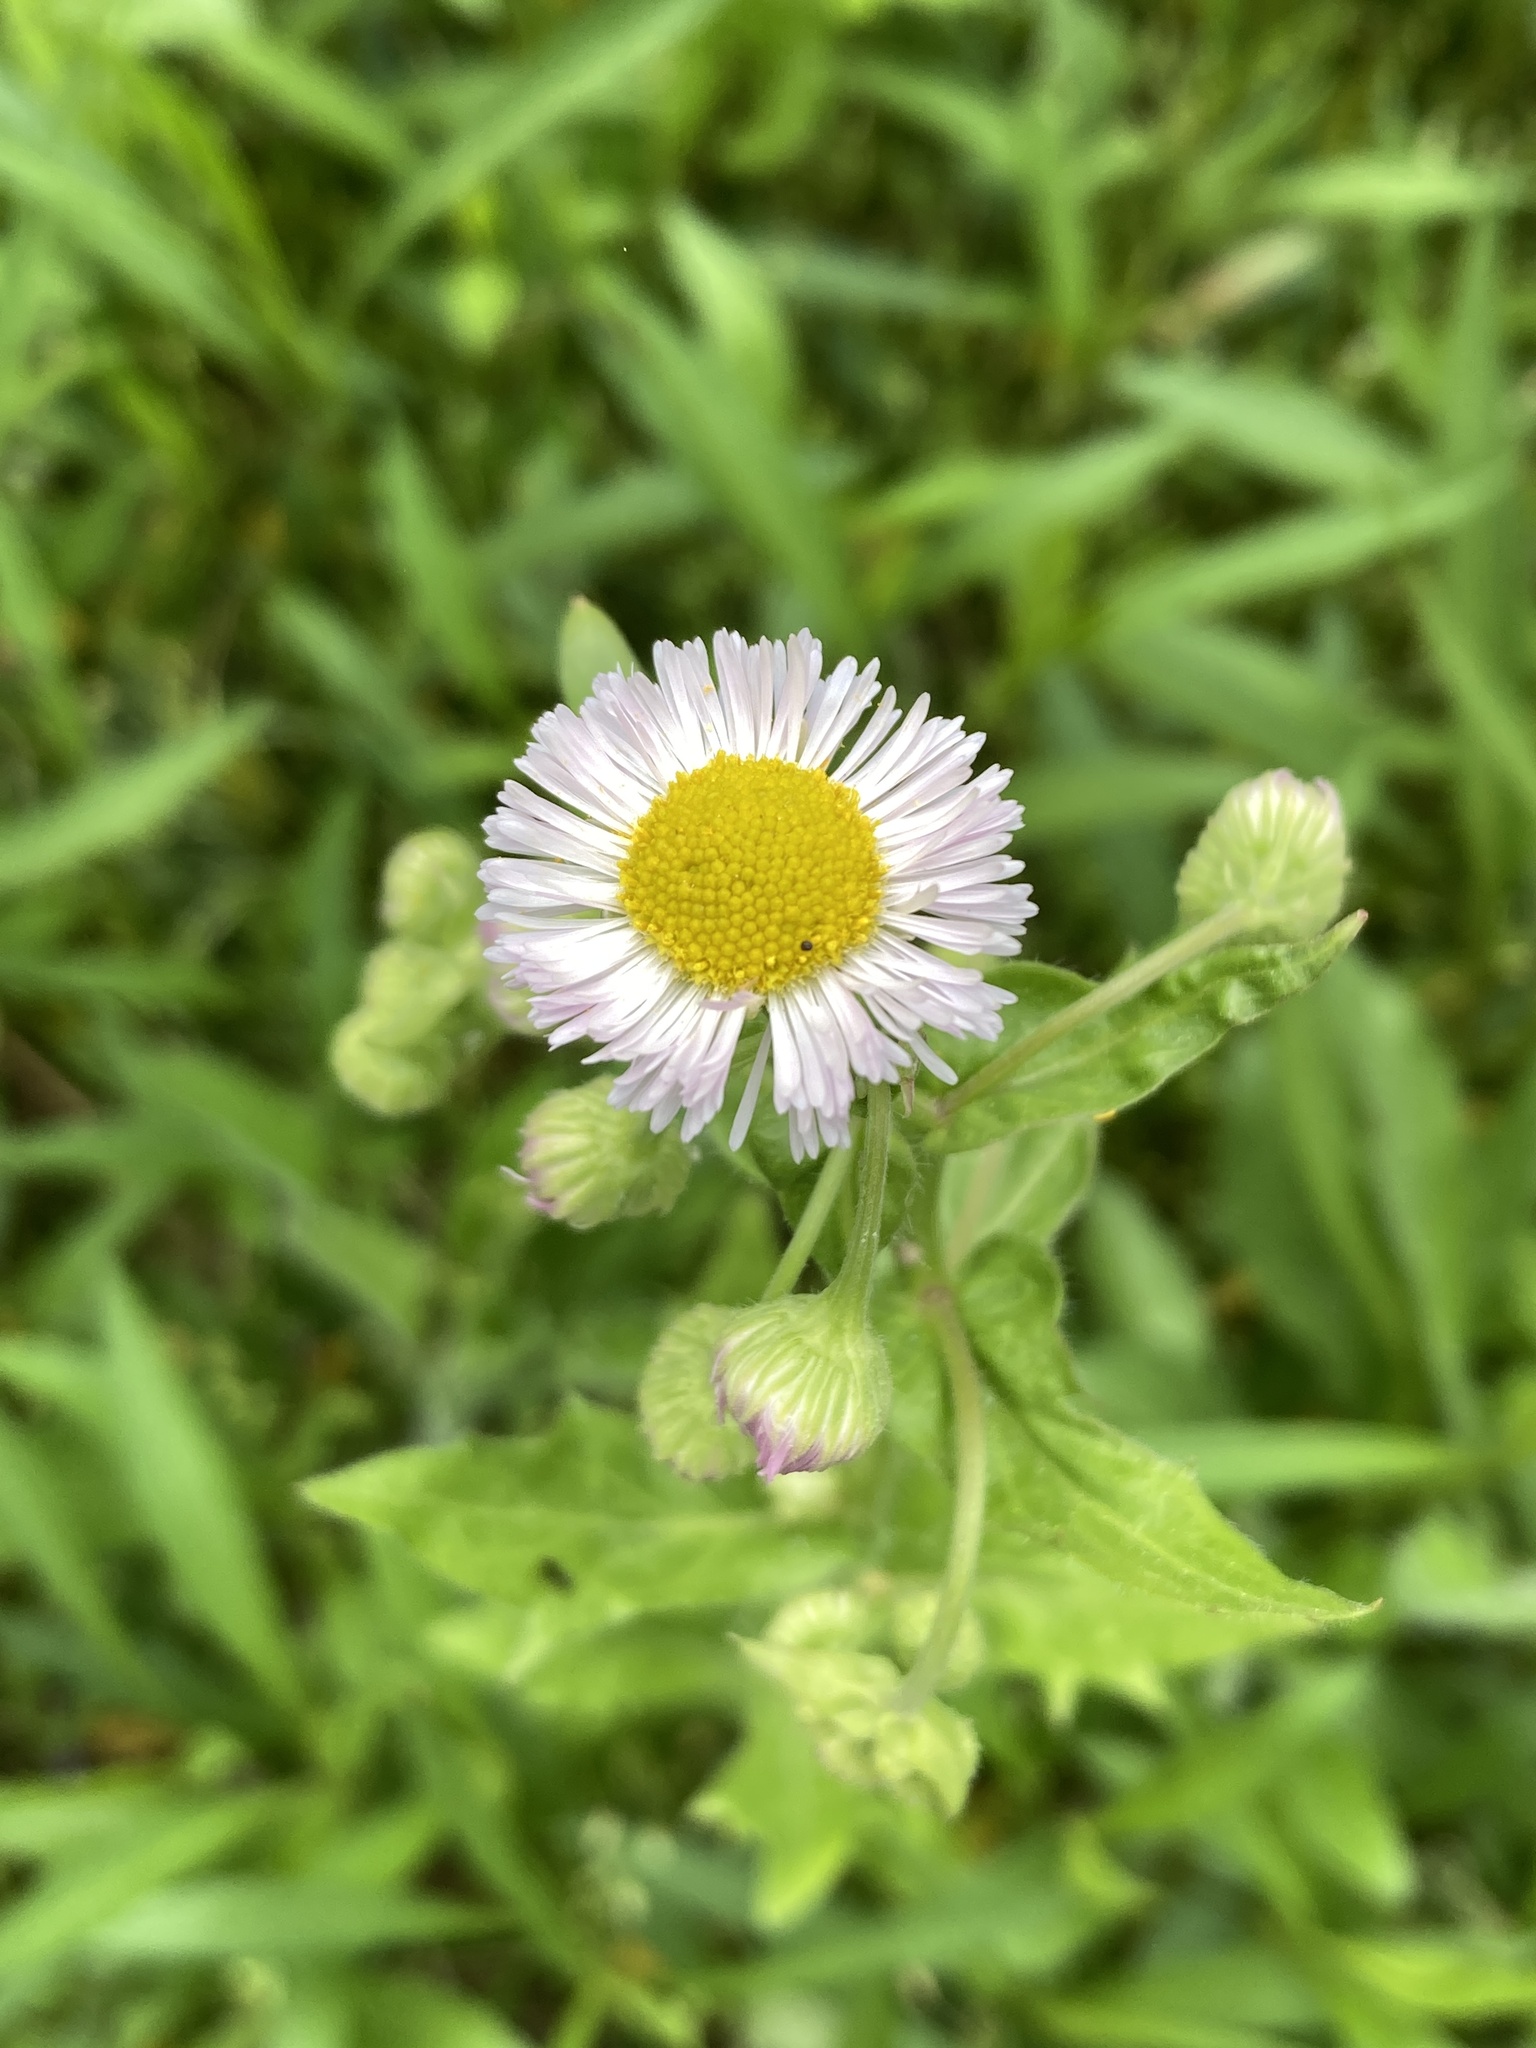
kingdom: Plantae
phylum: Tracheophyta
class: Magnoliopsida
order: Asterales
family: Asteraceae
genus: Erigeron
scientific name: Erigeron philadelphicus
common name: Robin's-plantain
